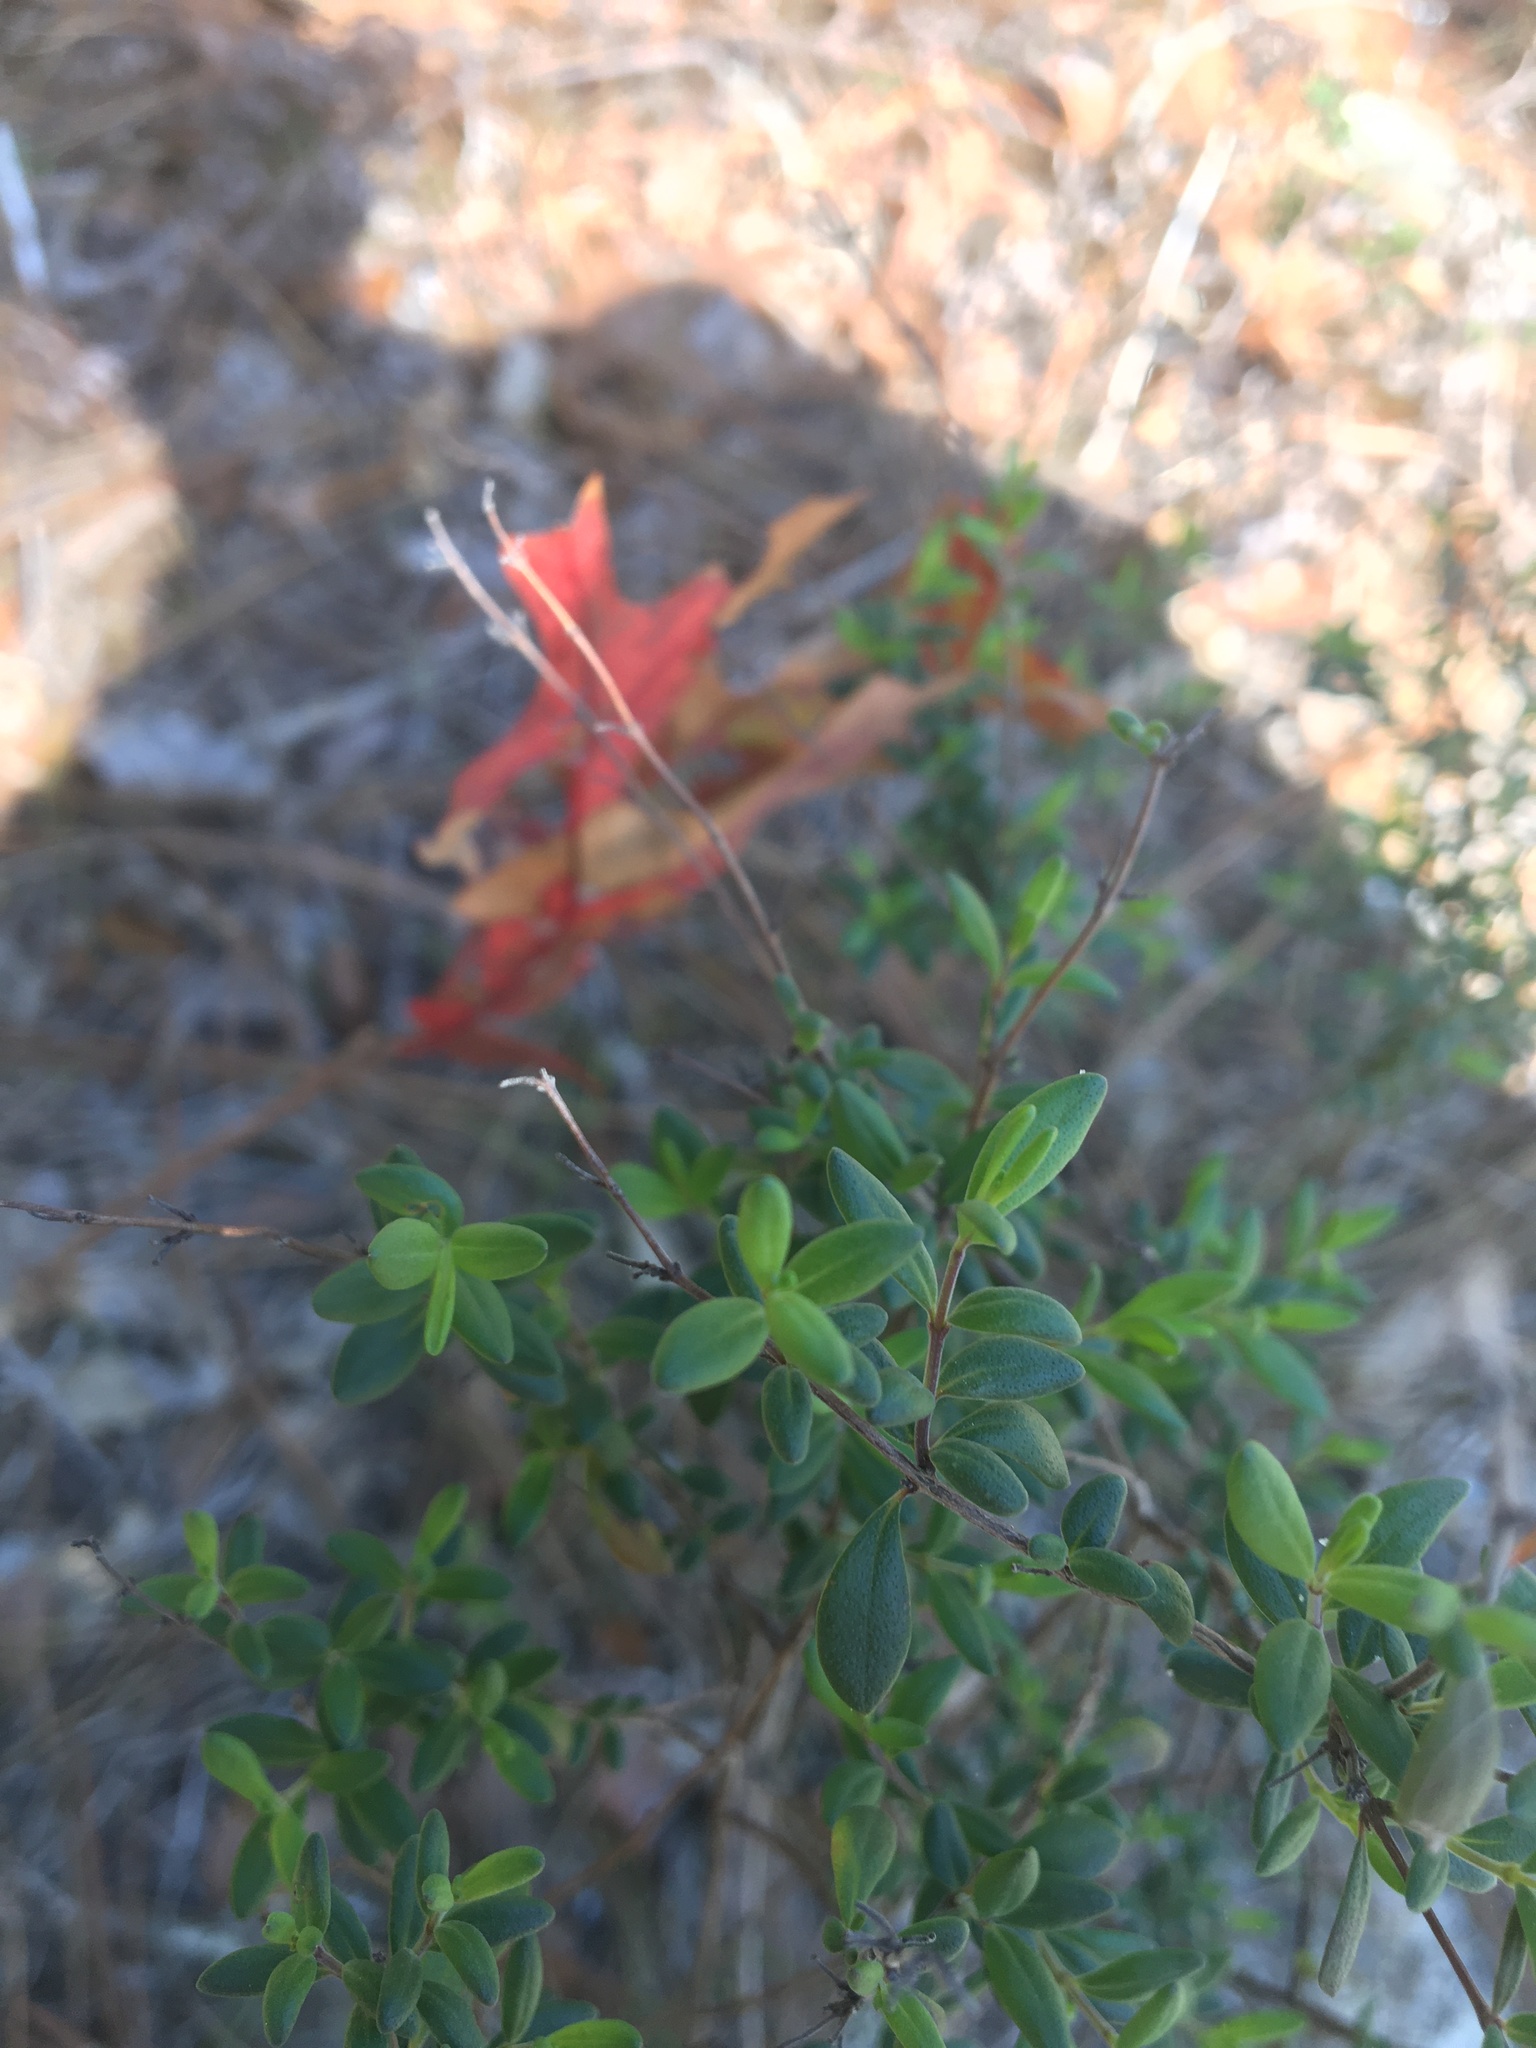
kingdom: Plantae
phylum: Tracheophyta
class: Magnoliopsida
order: Lamiales
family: Lamiaceae
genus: Clinopodium
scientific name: Clinopodium coccineum
